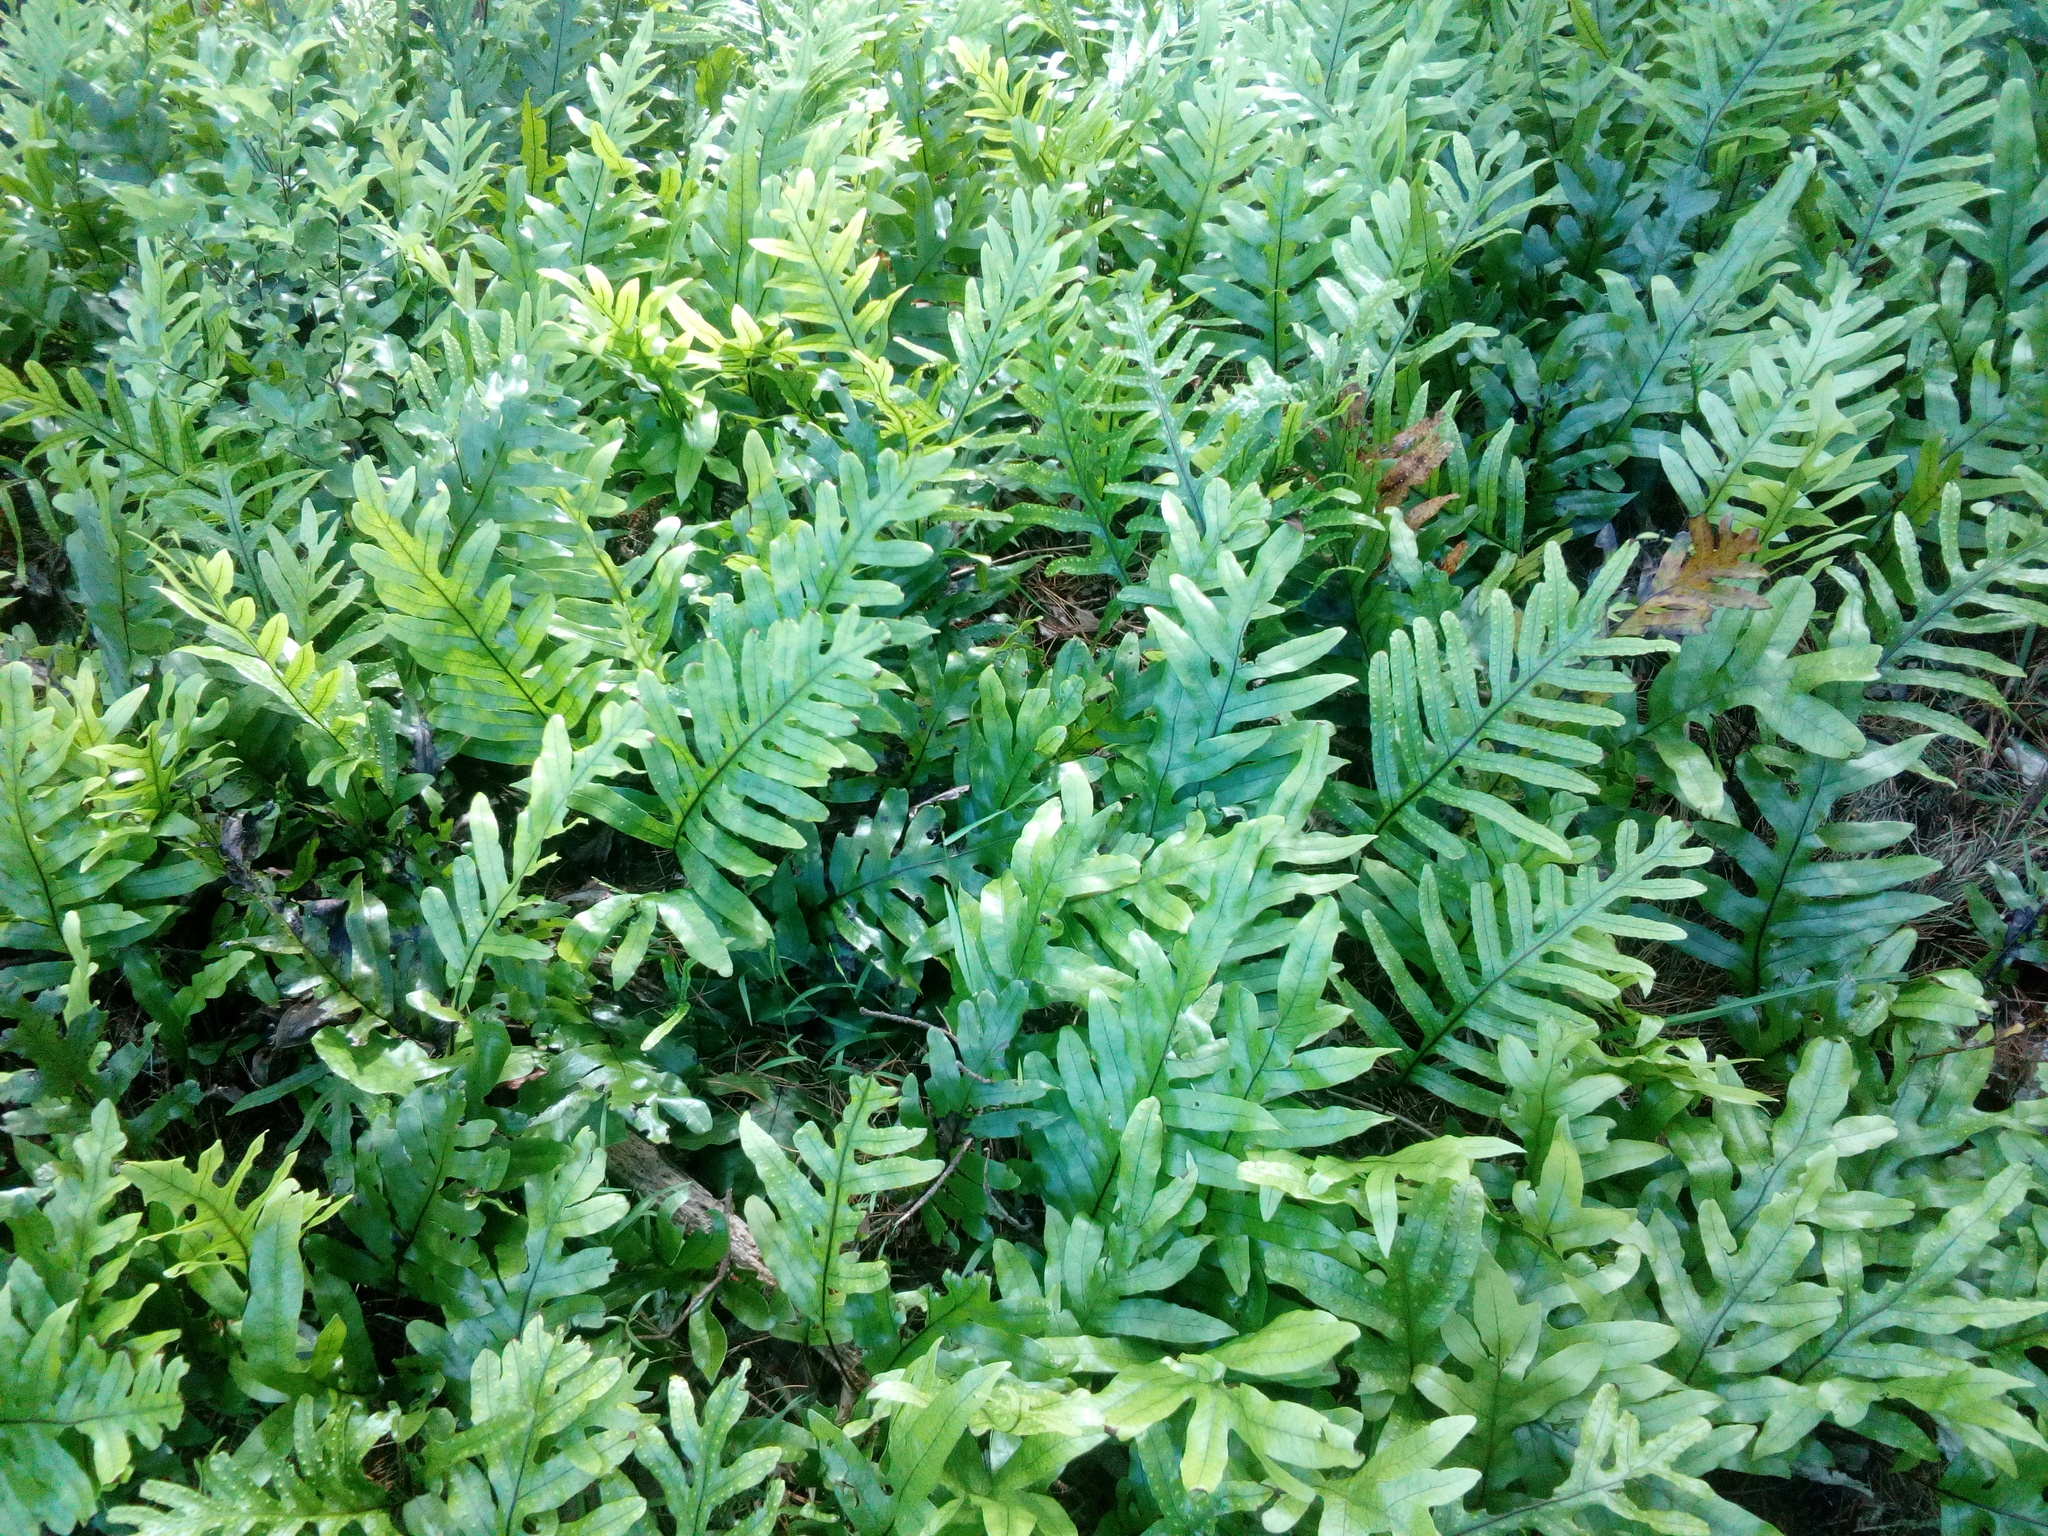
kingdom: Plantae
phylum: Tracheophyta
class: Polypodiopsida
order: Polypodiales
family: Polypodiaceae
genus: Lecanopteris
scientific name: Lecanopteris pustulata
